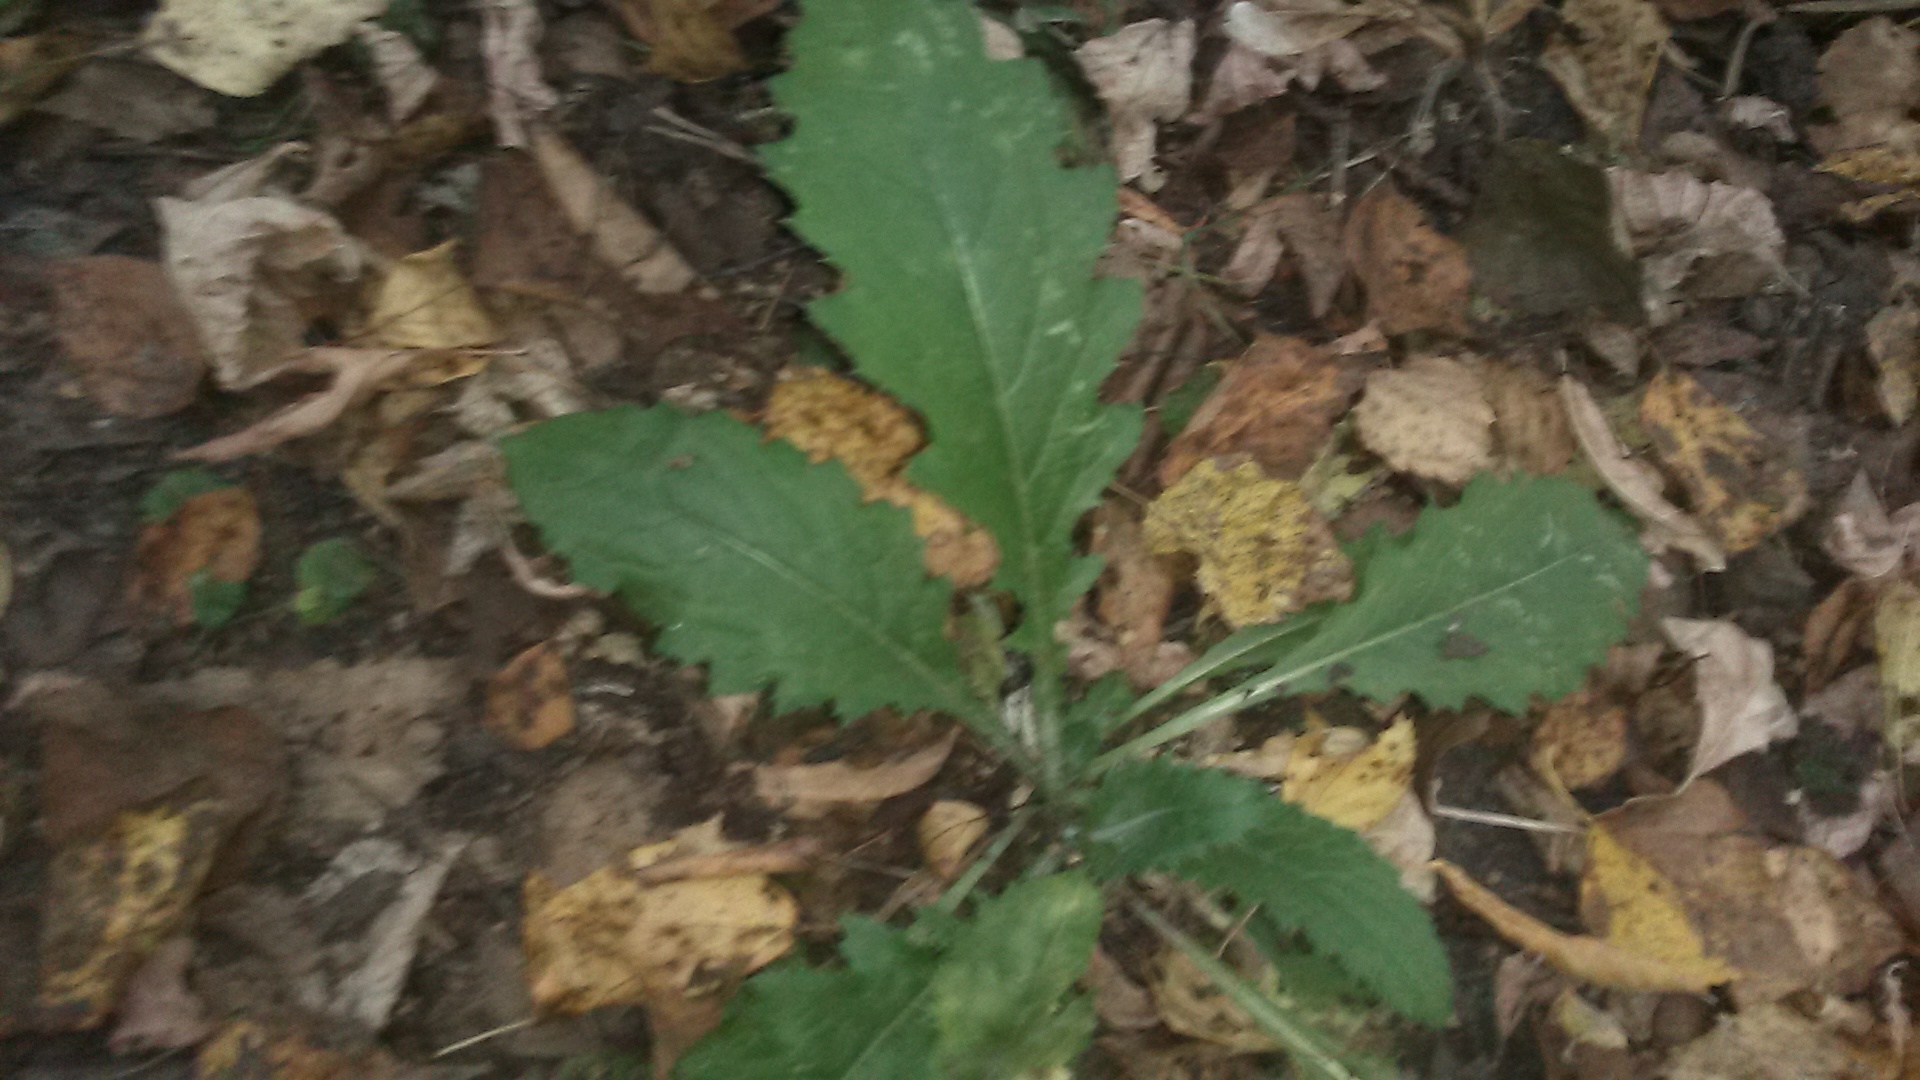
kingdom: Plantae
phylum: Tracheophyta
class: Magnoliopsida
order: Asterales
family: Asteraceae
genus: Carduus
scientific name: Carduus crispus
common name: Welted thistle
